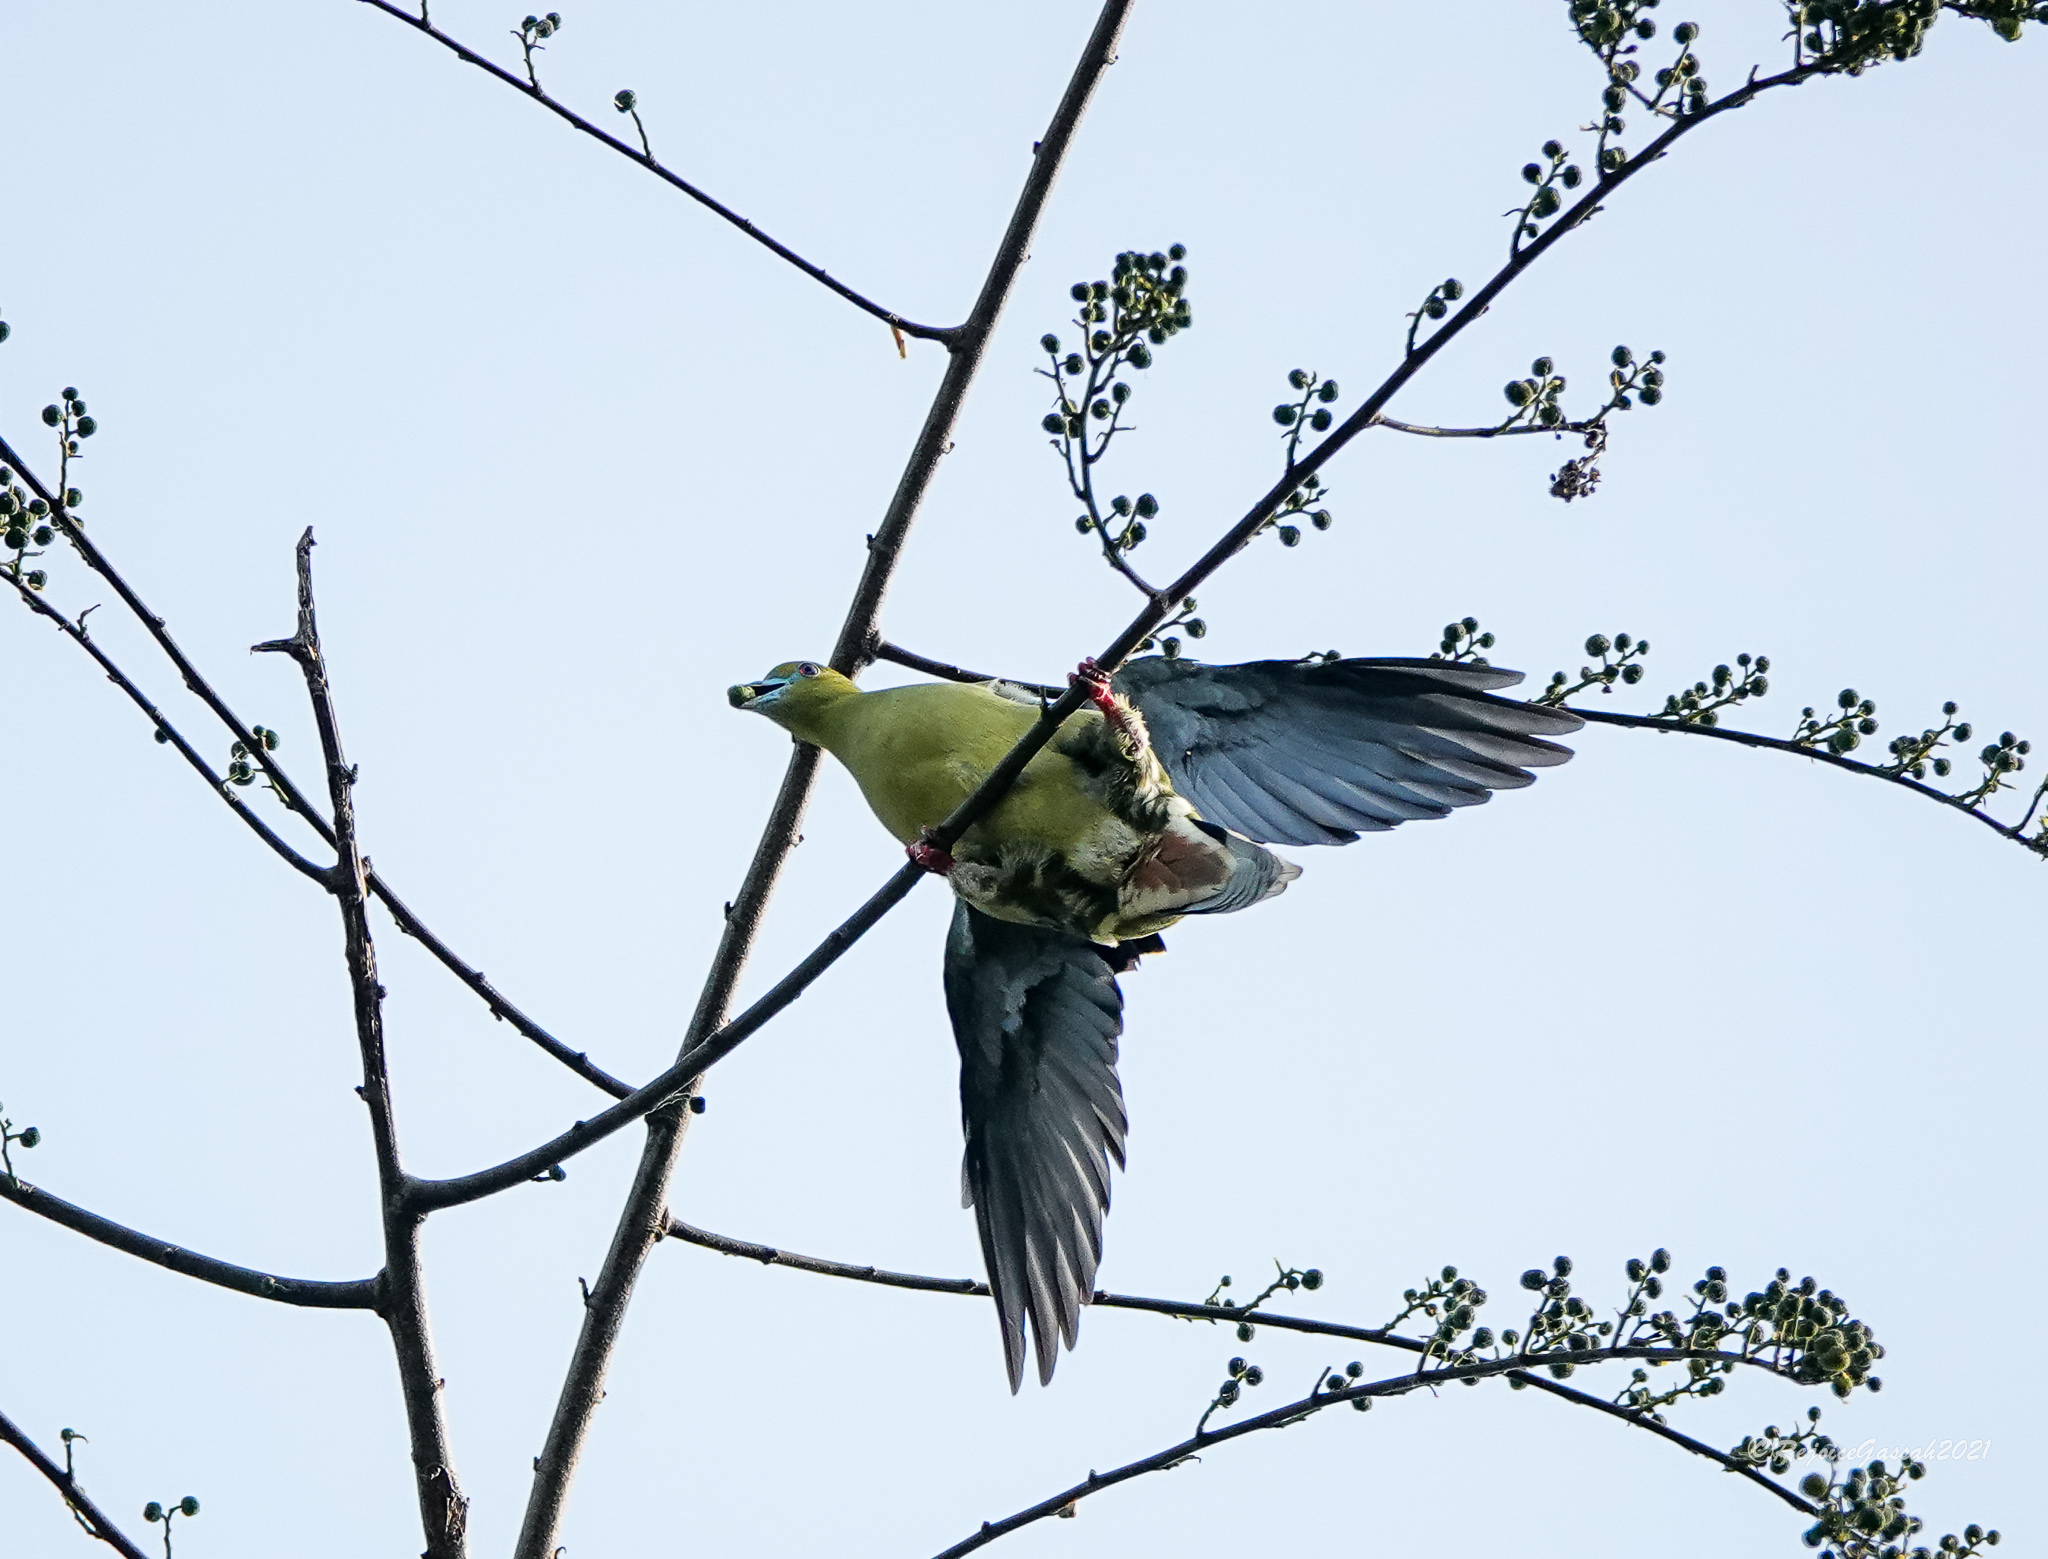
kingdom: Animalia
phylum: Chordata
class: Aves
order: Columbiformes
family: Columbidae
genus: Treron
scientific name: Treron apicauda
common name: Pin-tailed green pigeon
